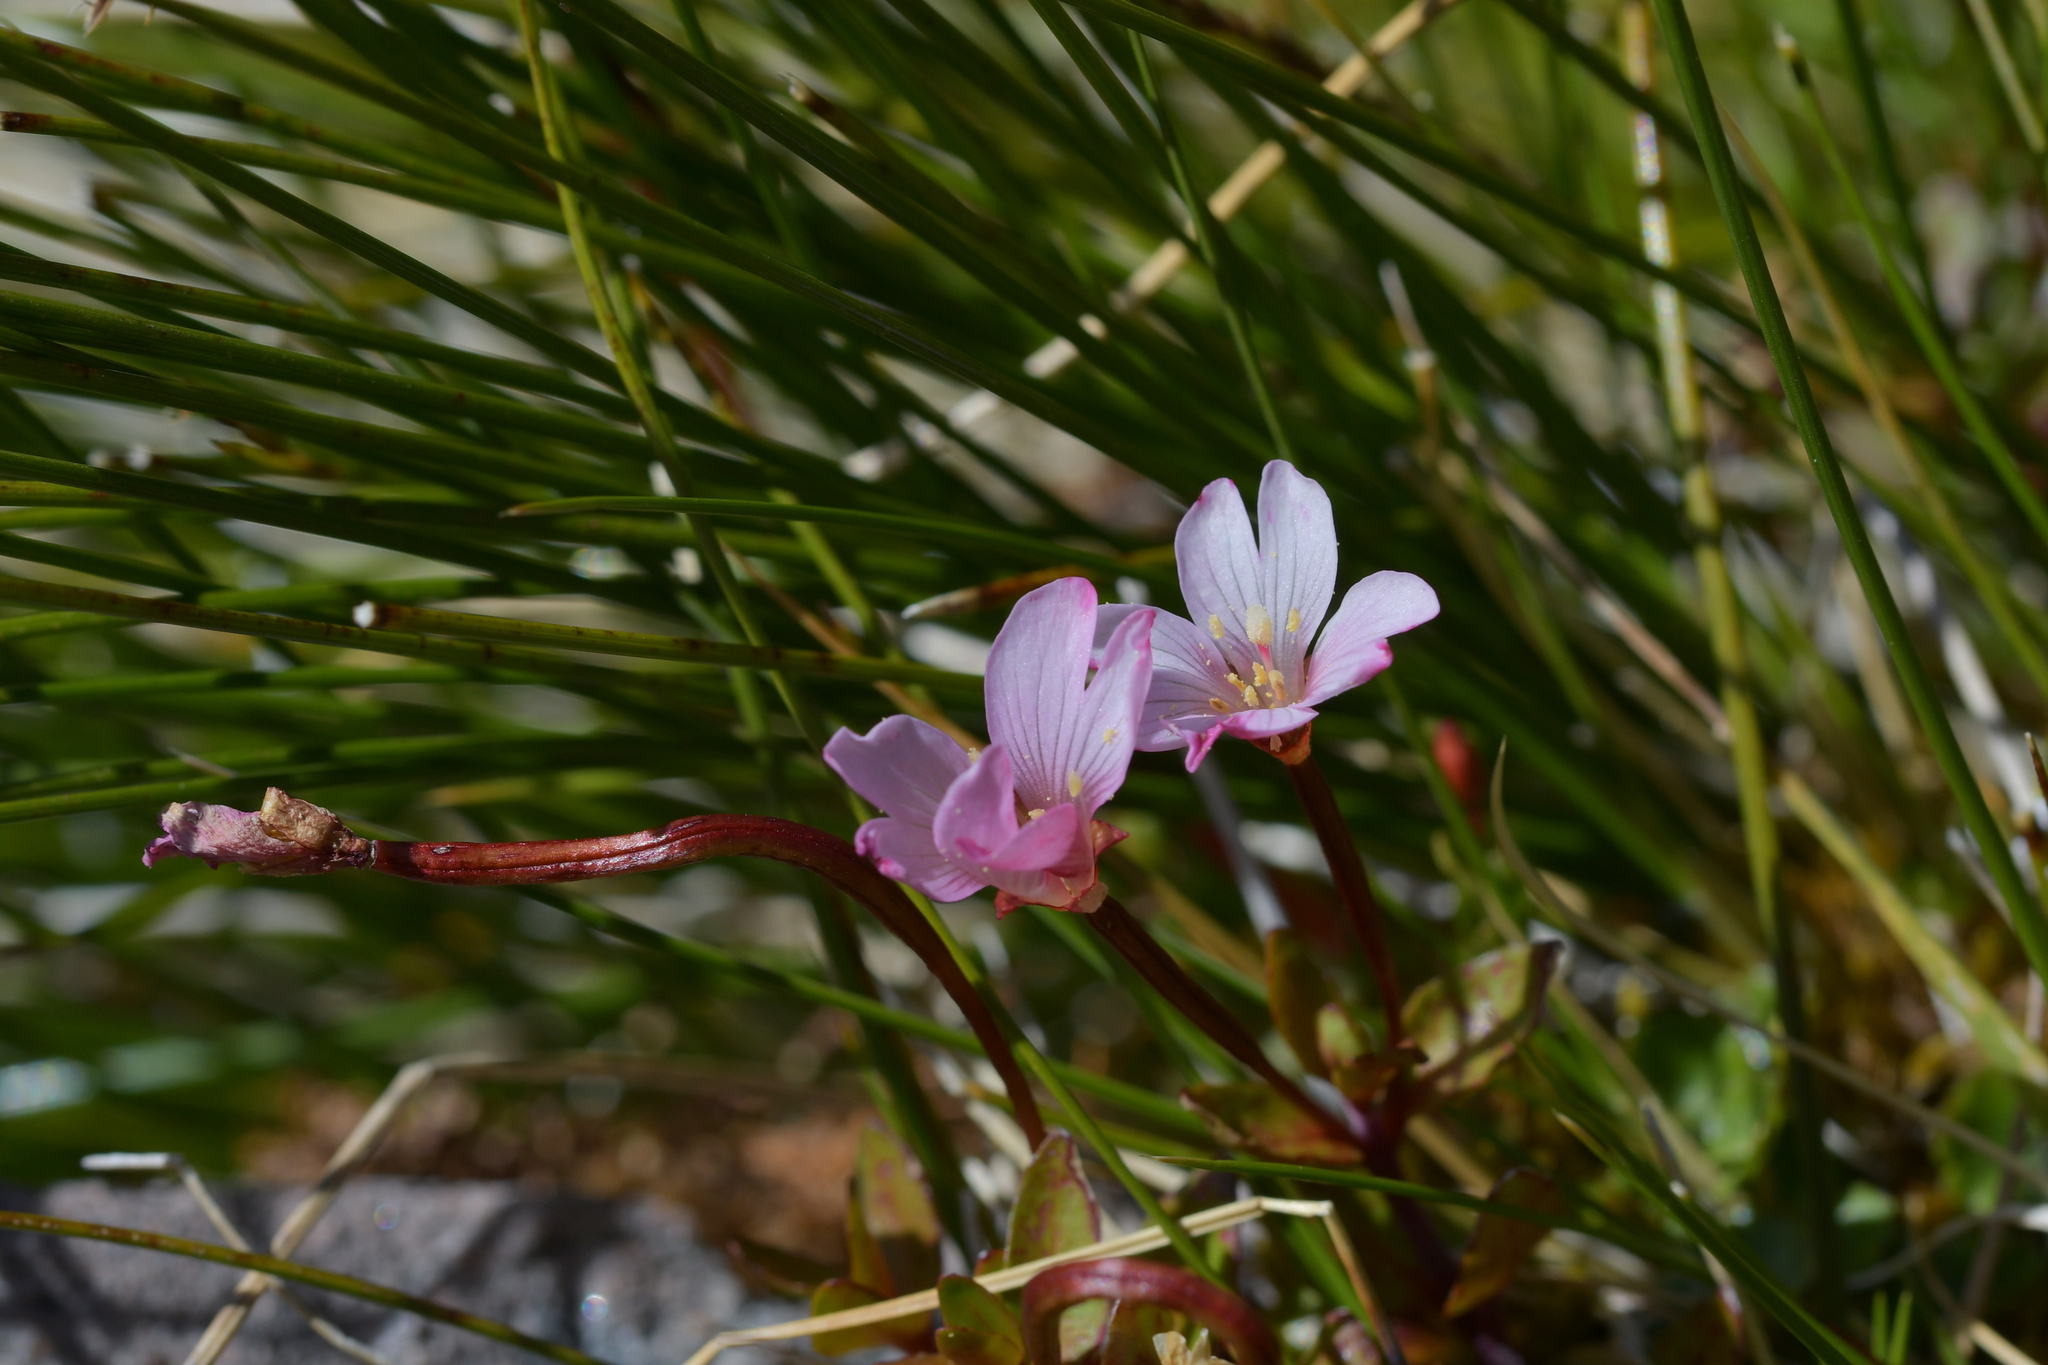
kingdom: Plantae
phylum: Tracheophyta
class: Magnoliopsida
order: Myrtales
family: Onagraceae
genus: Epilobium
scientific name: Epilobium macropus
